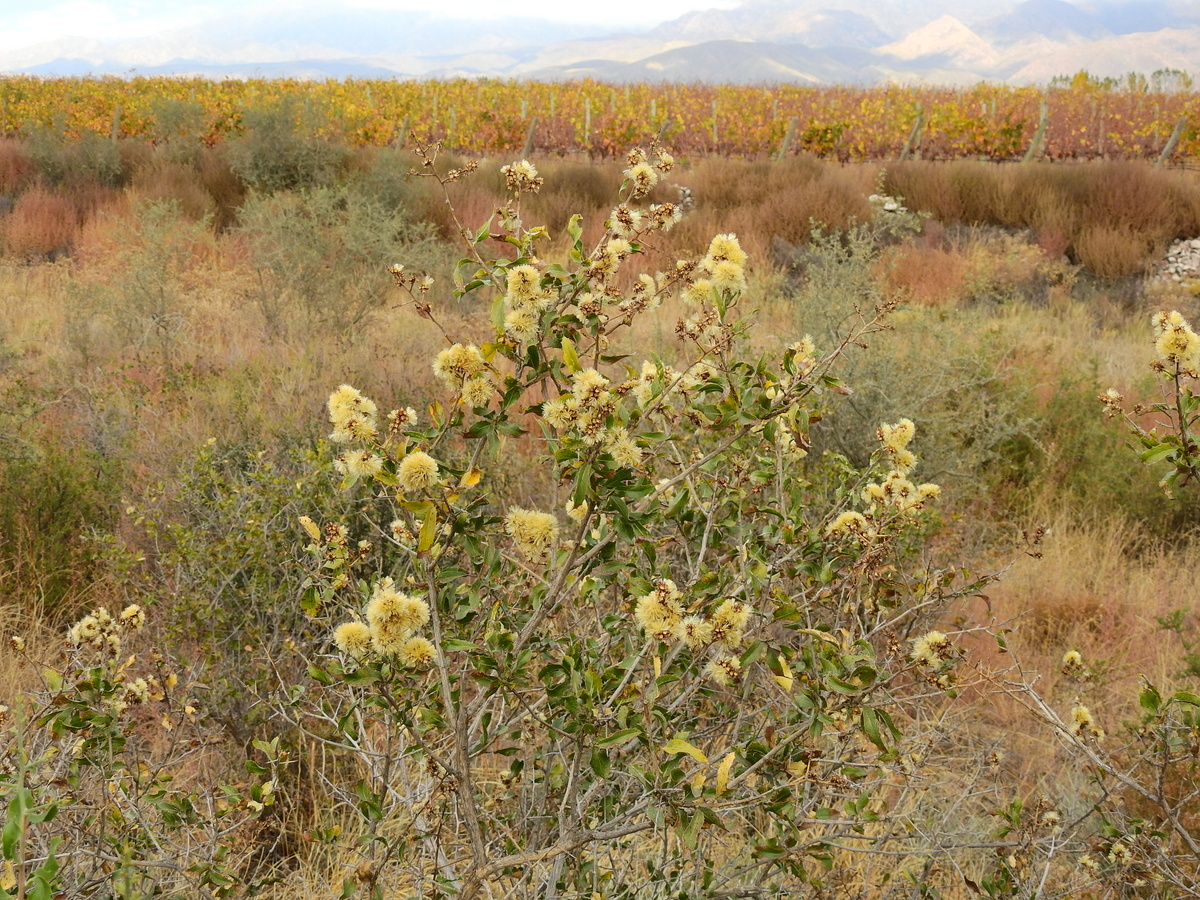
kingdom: Plantae
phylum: Tracheophyta
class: Magnoliopsida
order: Asterales
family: Asteraceae
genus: Proustia
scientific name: Proustia cuneifolia
